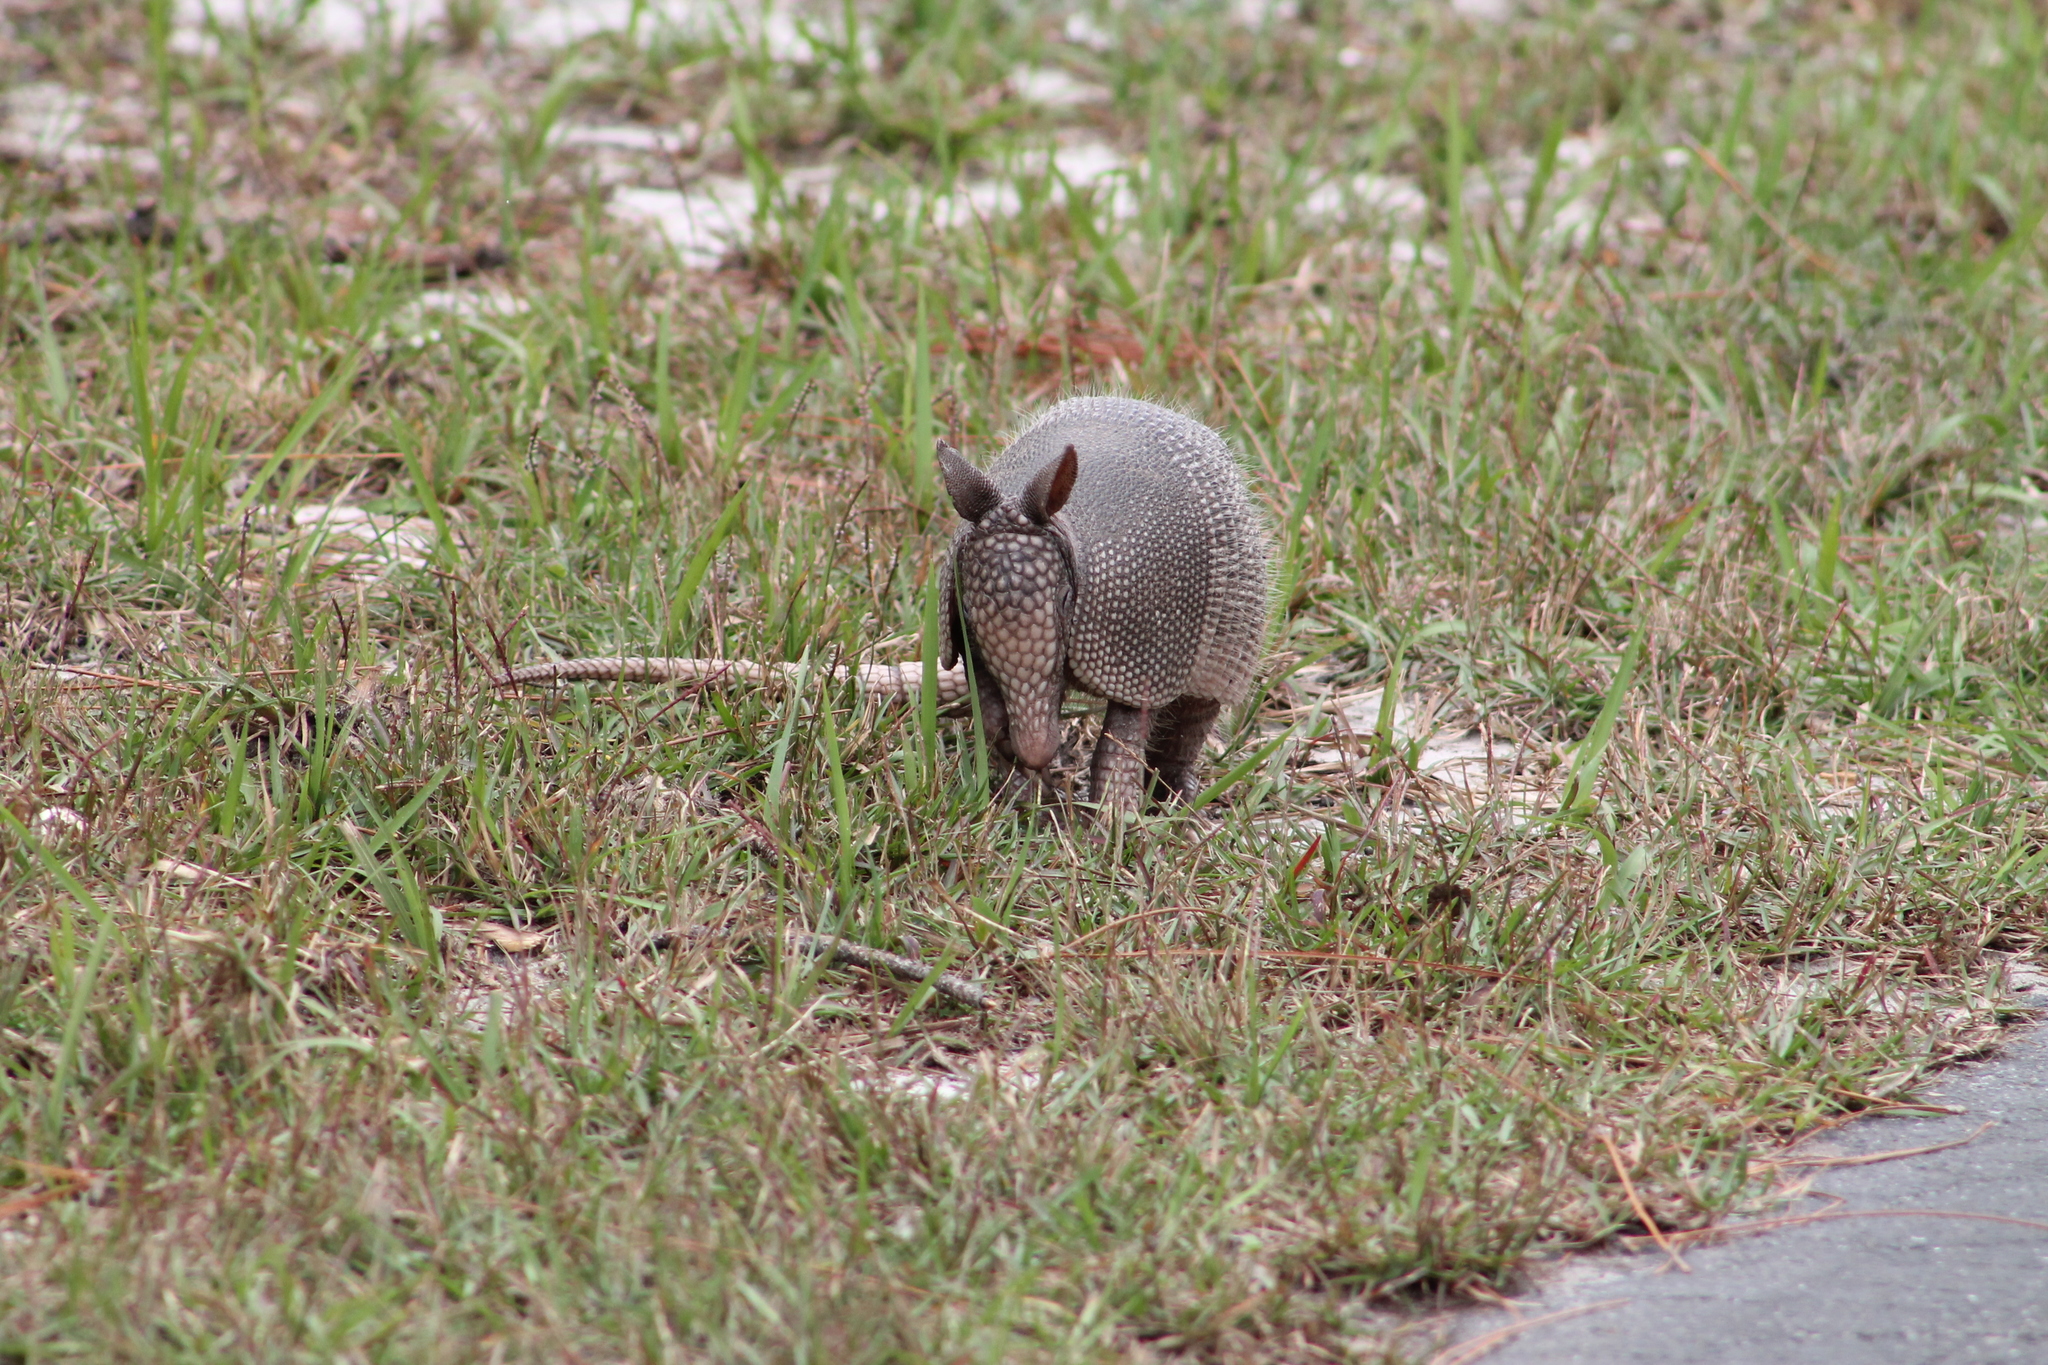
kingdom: Animalia
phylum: Chordata
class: Mammalia
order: Cingulata
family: Dasypodidae
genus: Dasypus
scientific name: Dasypus novemcinctus
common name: Nine-banded armadillo
